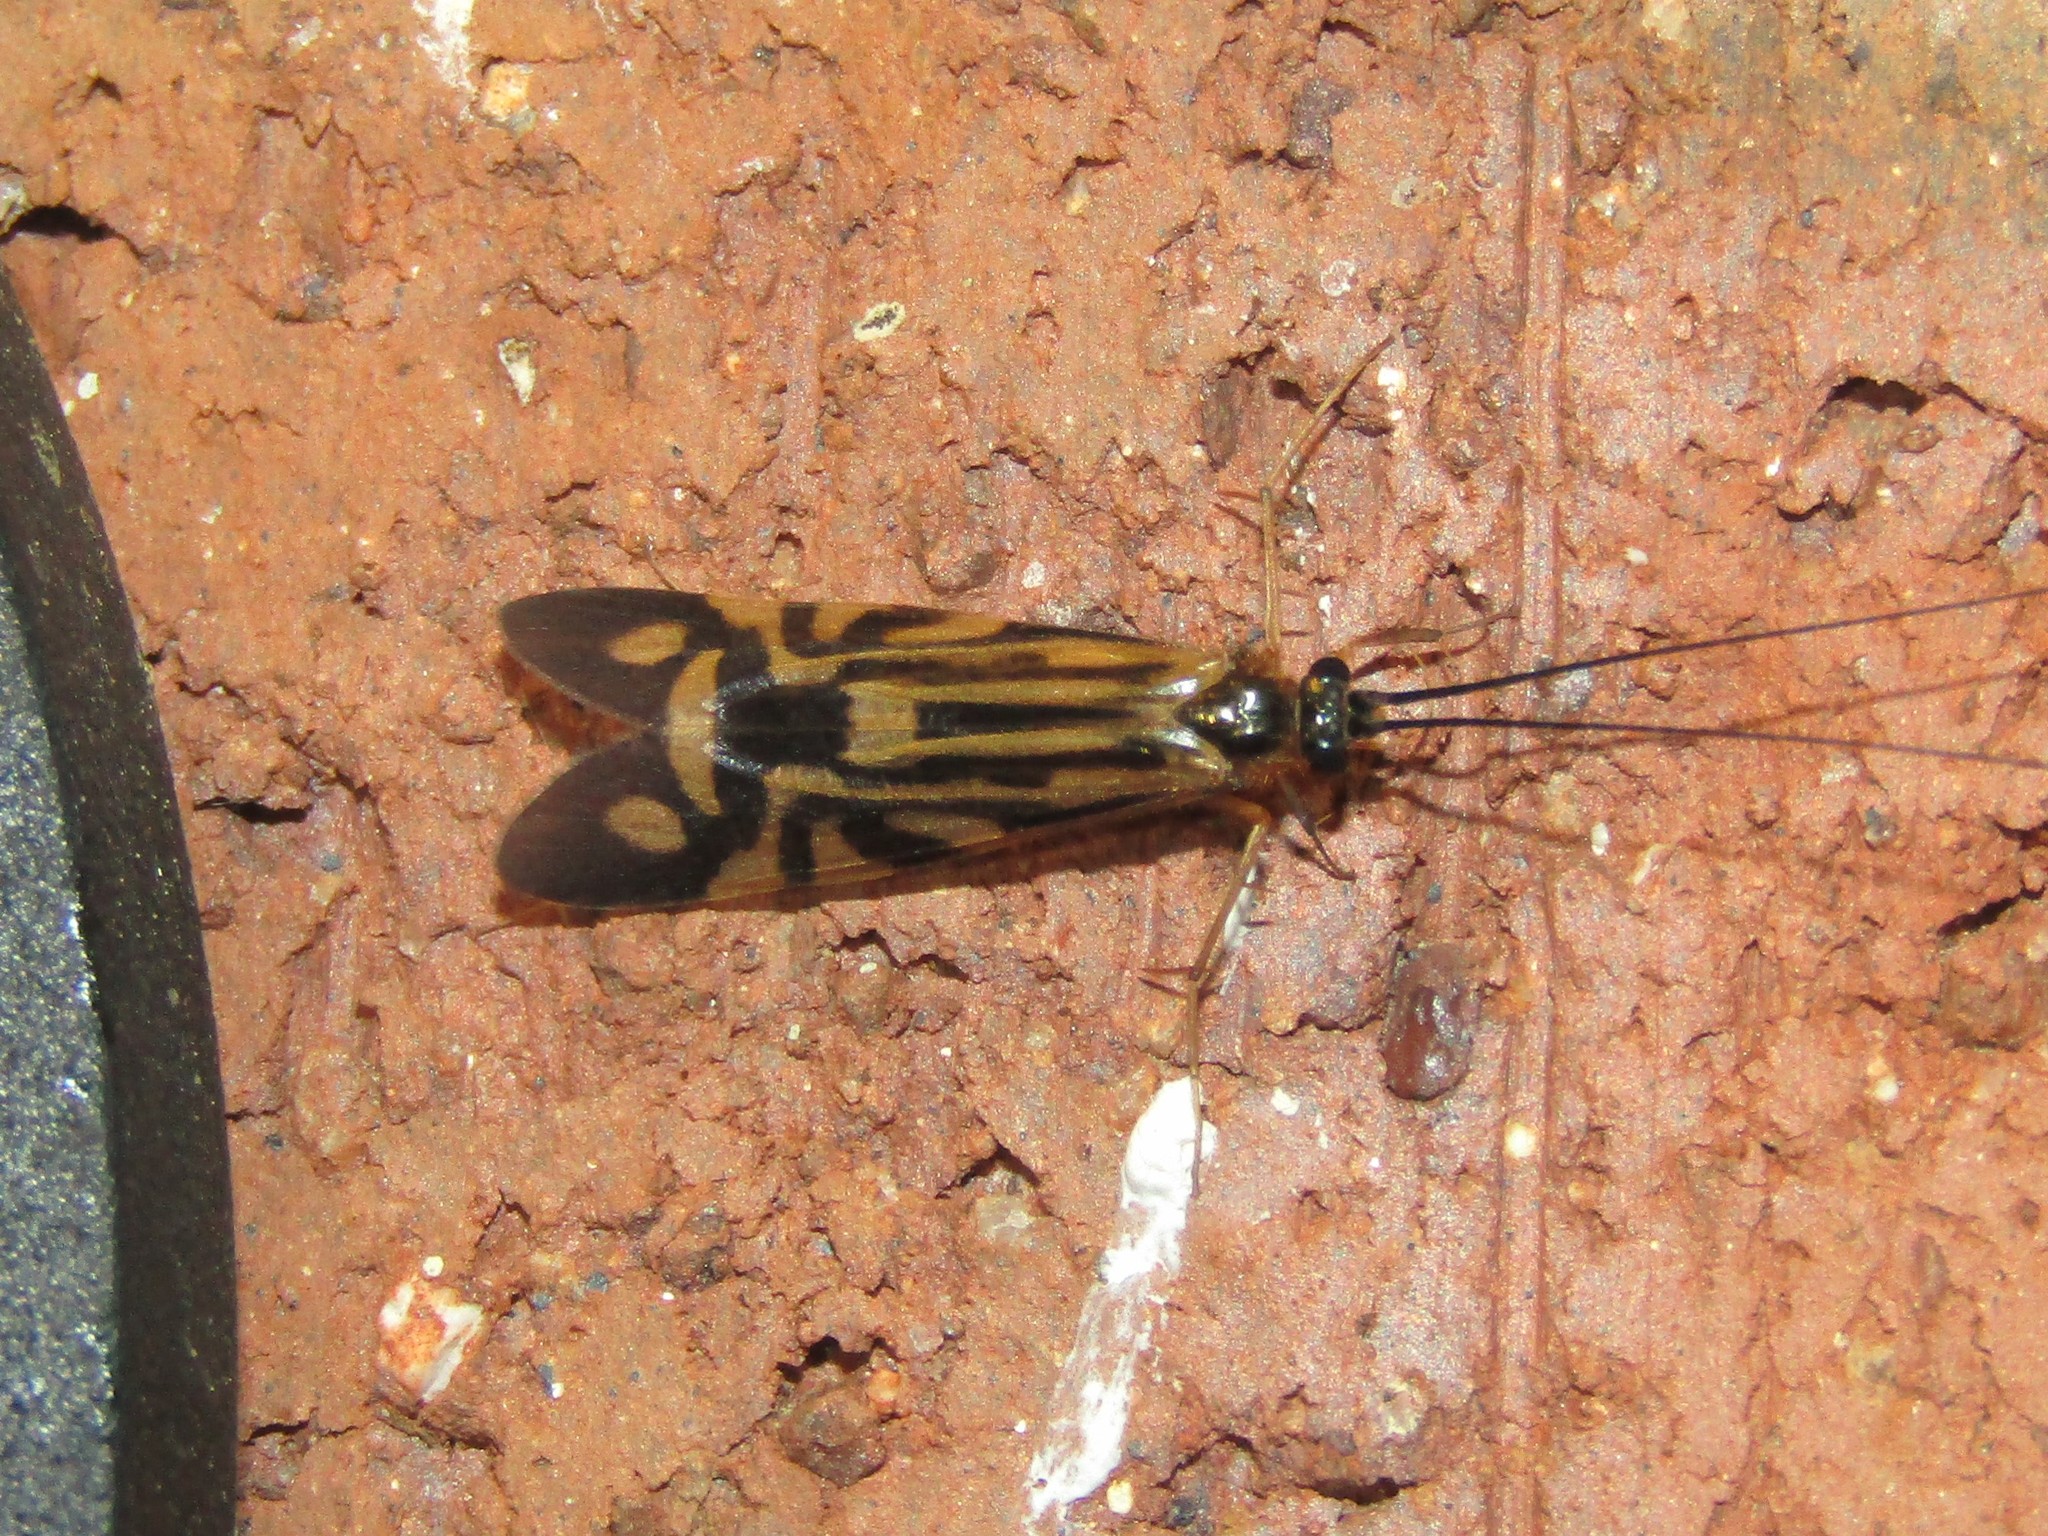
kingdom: Animalia
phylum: Arthropoda
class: Insecta
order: Trichoptera
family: Hydropsychidae
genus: Macrostemum
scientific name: Macrostemum carolina
